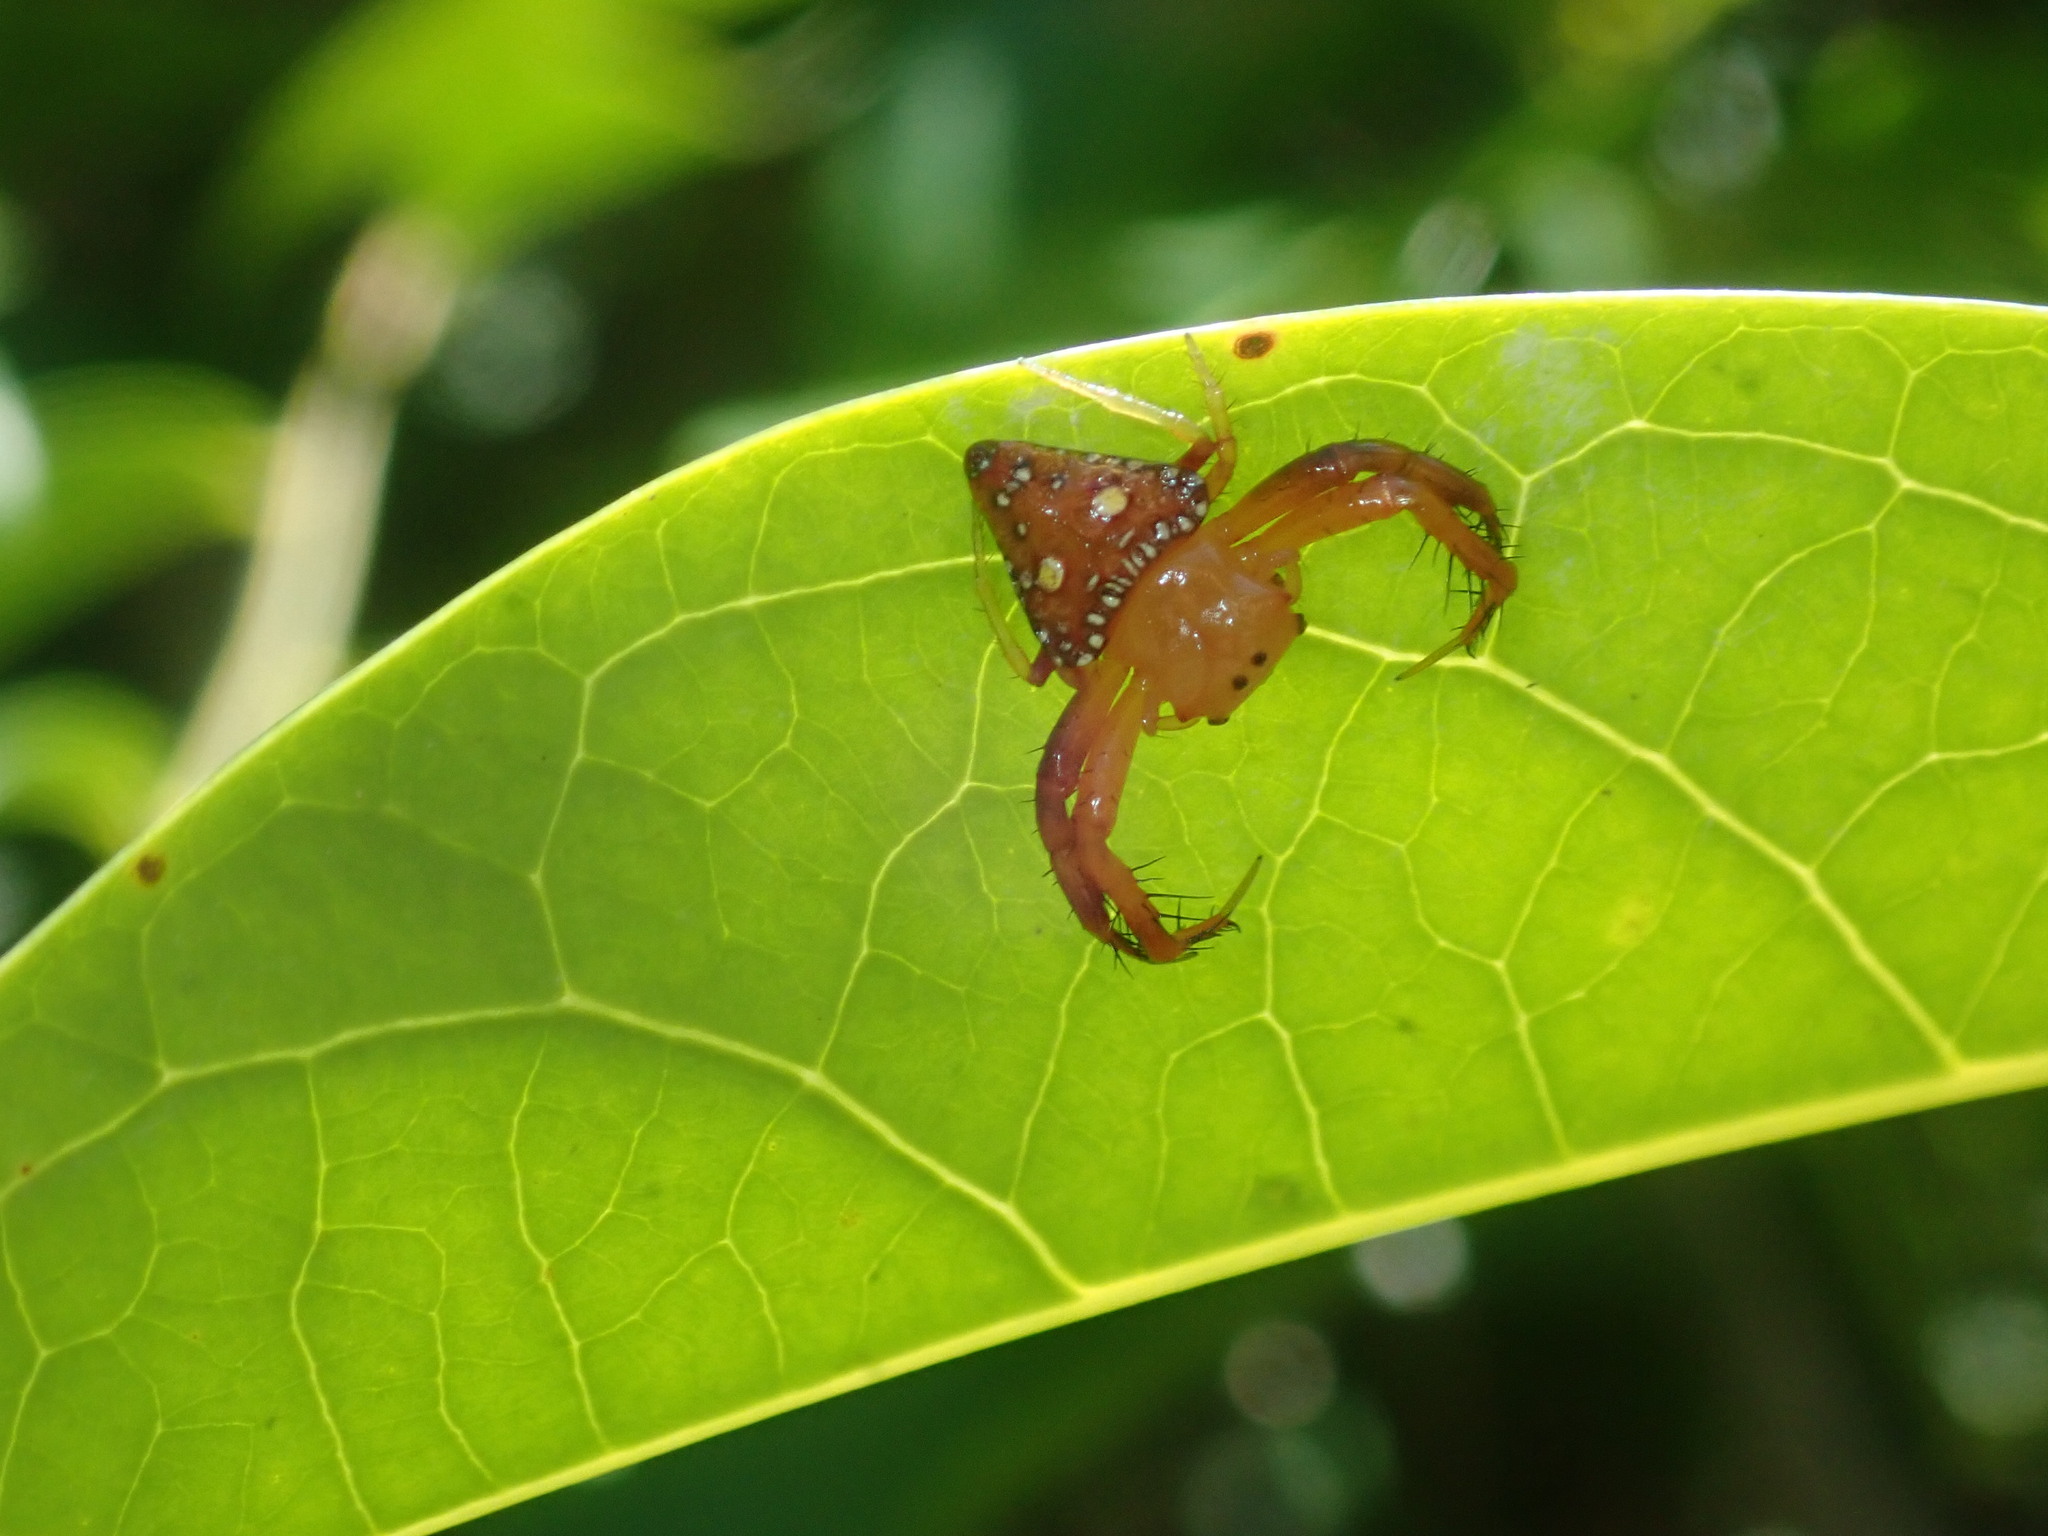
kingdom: Animalia
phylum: Arthropoda
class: Arachnida
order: Araneae
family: Arkyidae
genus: Arkys
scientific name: Arkys lancearius
